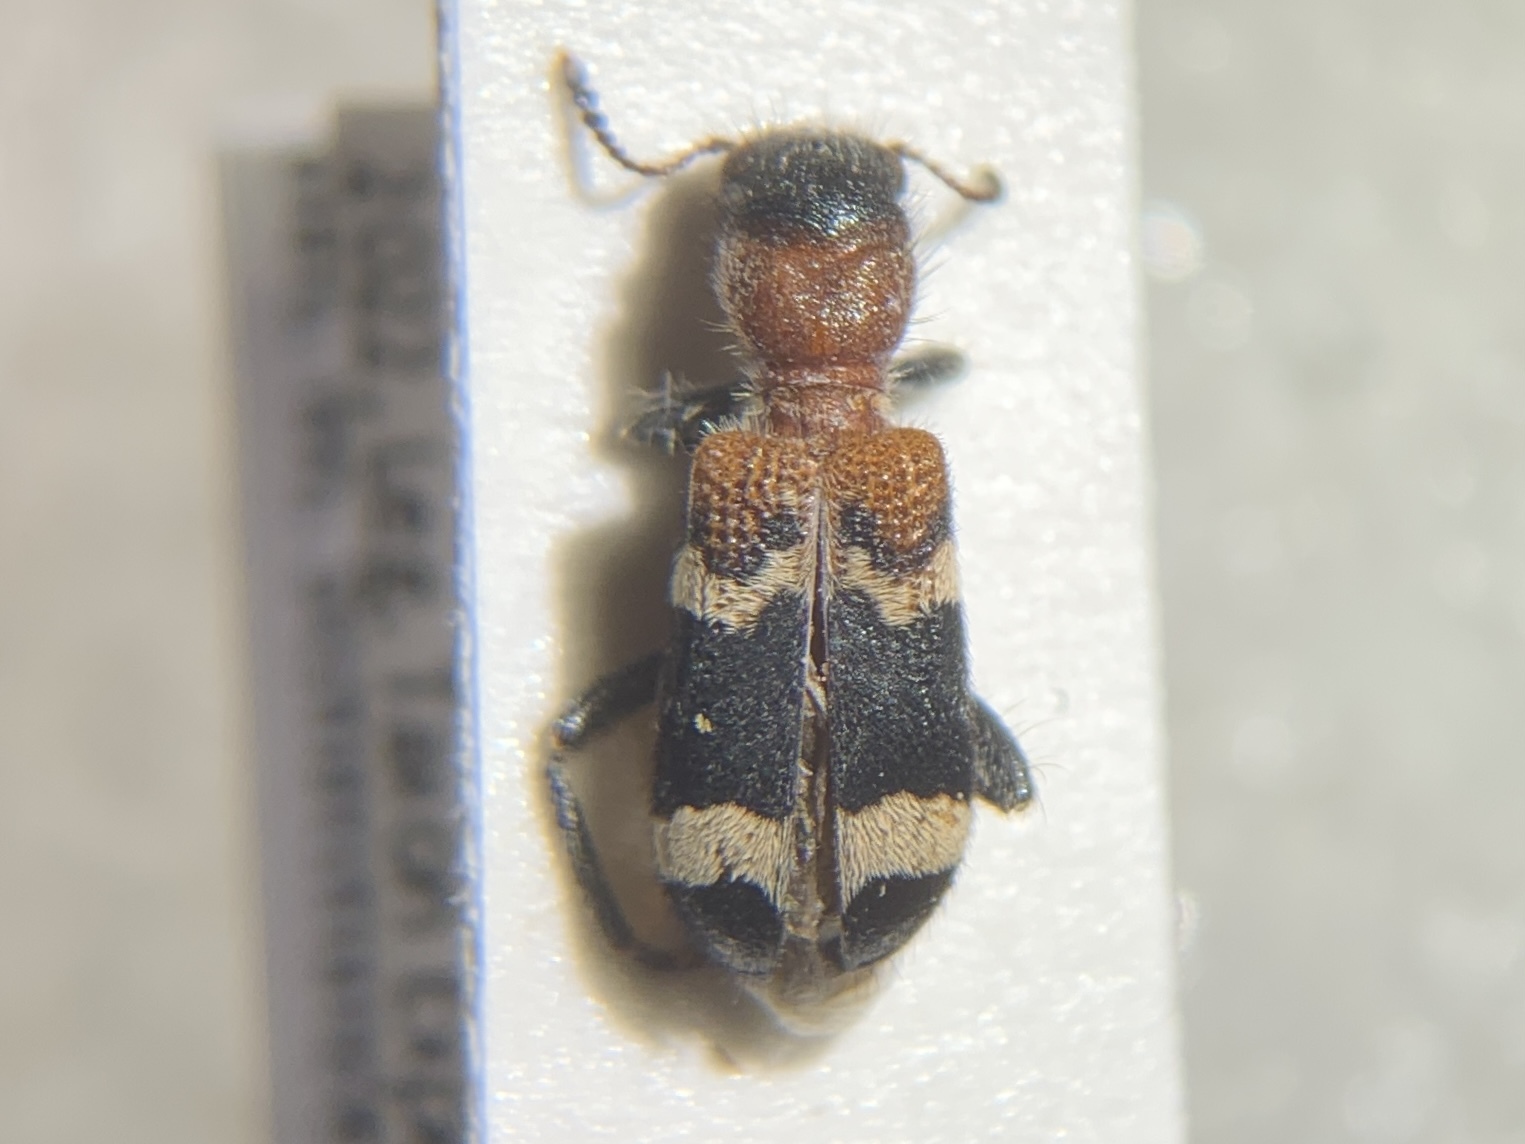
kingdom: Animalia
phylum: Arthropoda
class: Insecta
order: Coleoptera
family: Cleridae
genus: Thanasimus
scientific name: Thanasimus formicarius
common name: Ant beetle
